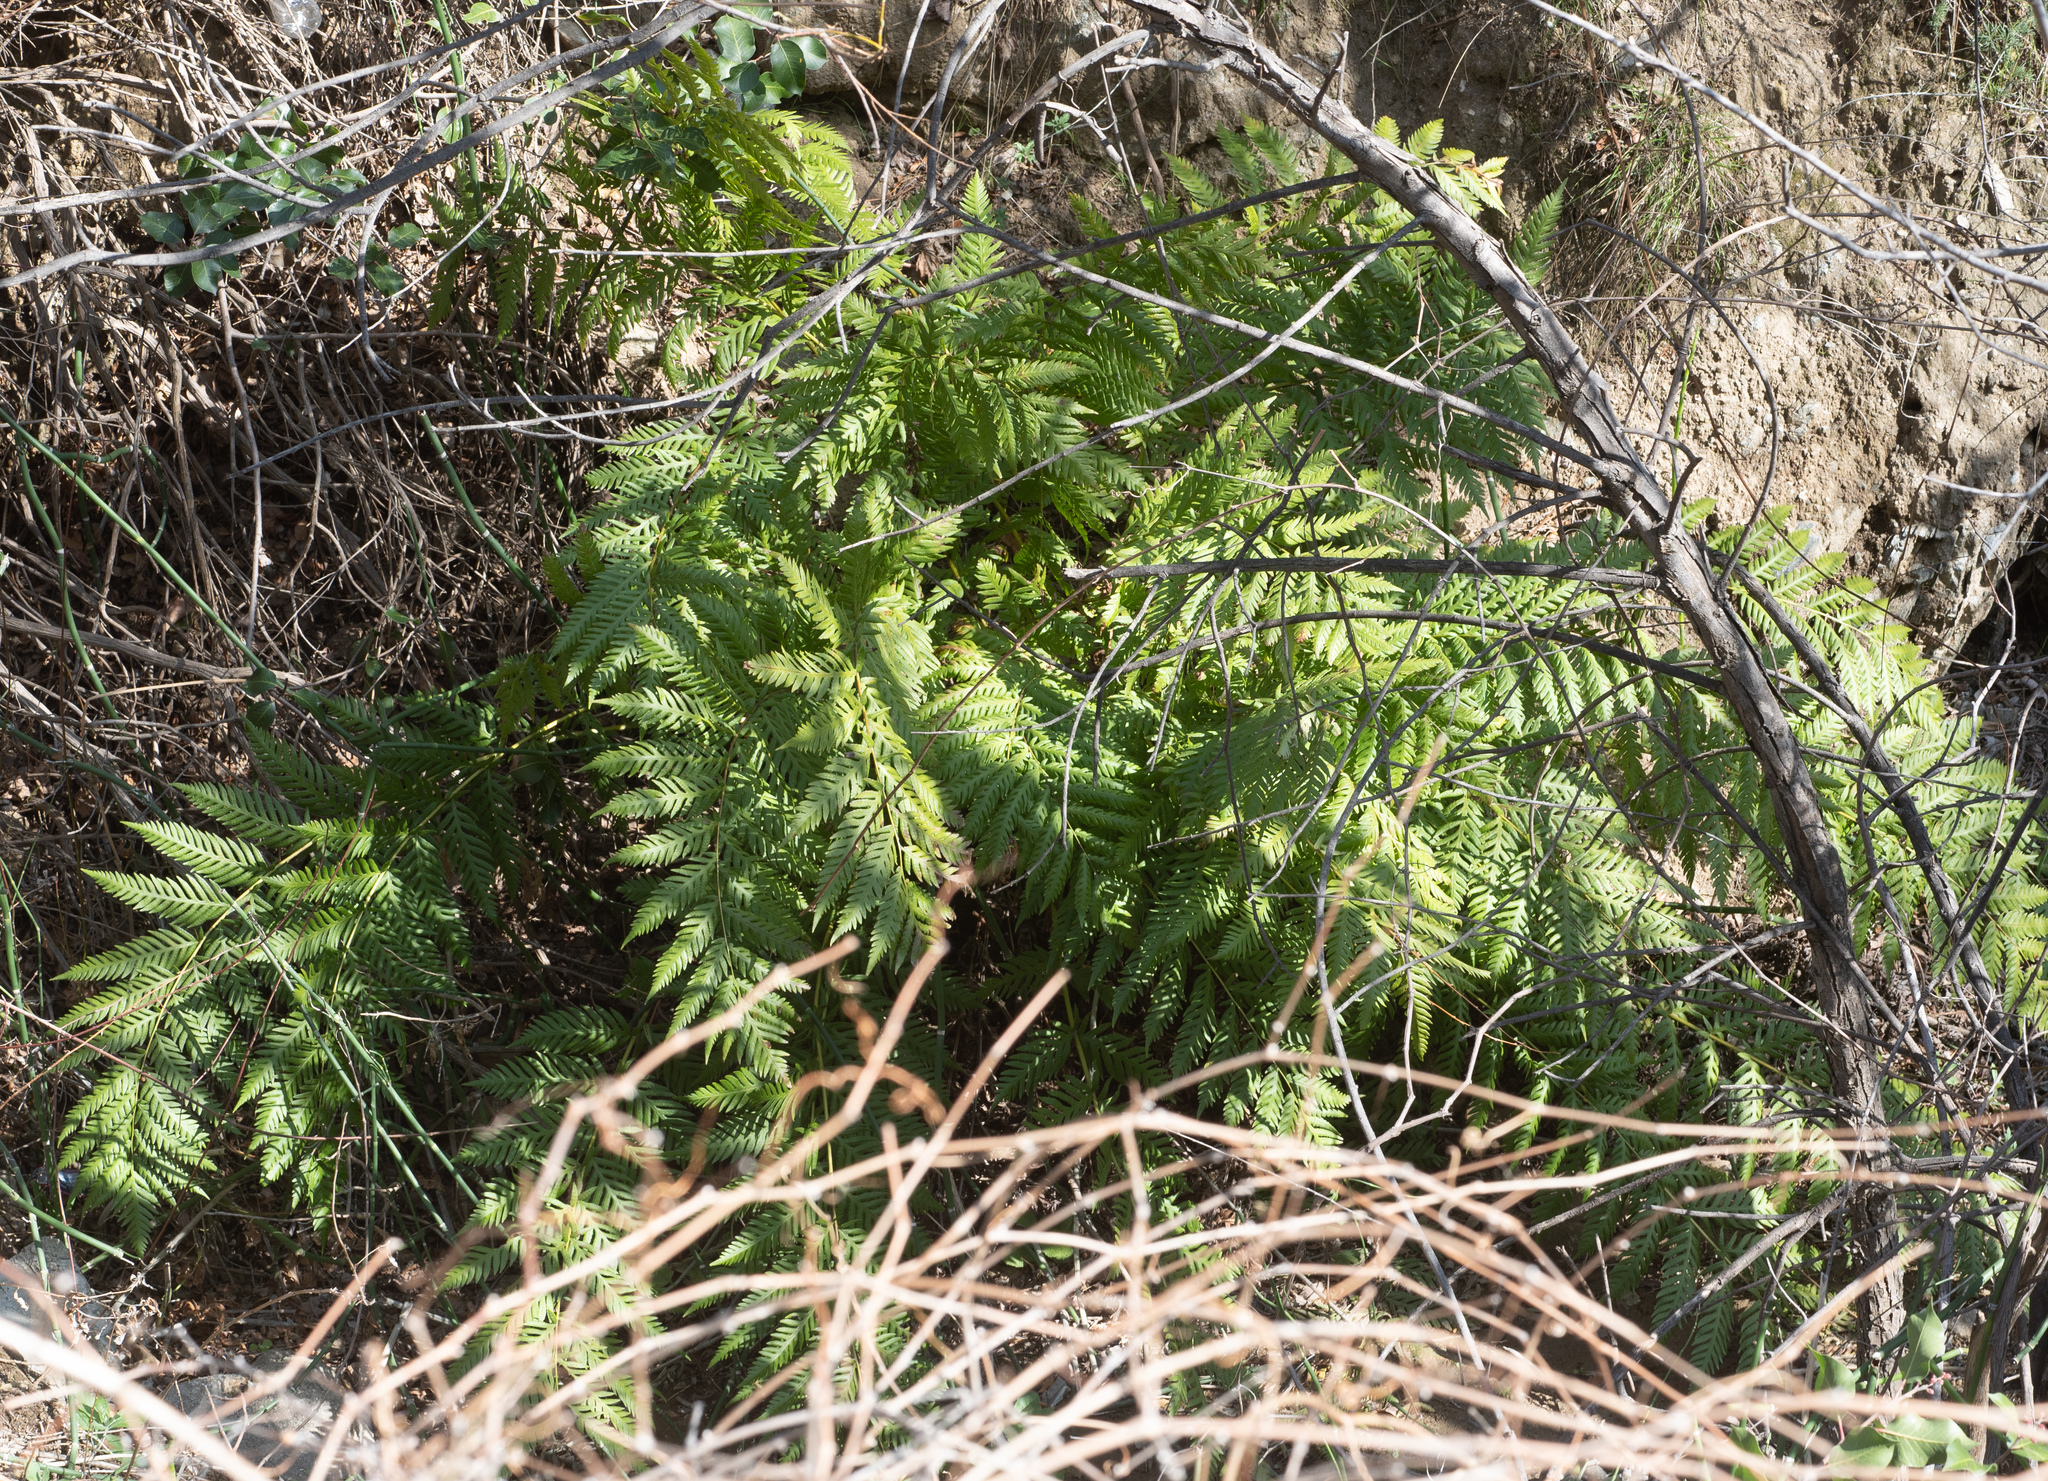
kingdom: Plantae
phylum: Tracheophyta
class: Polypodiopsida
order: Polypodiales
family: Blechnaceae
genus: Woodwardia
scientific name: Woodwardia fimbriata
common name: Giant chain fern
